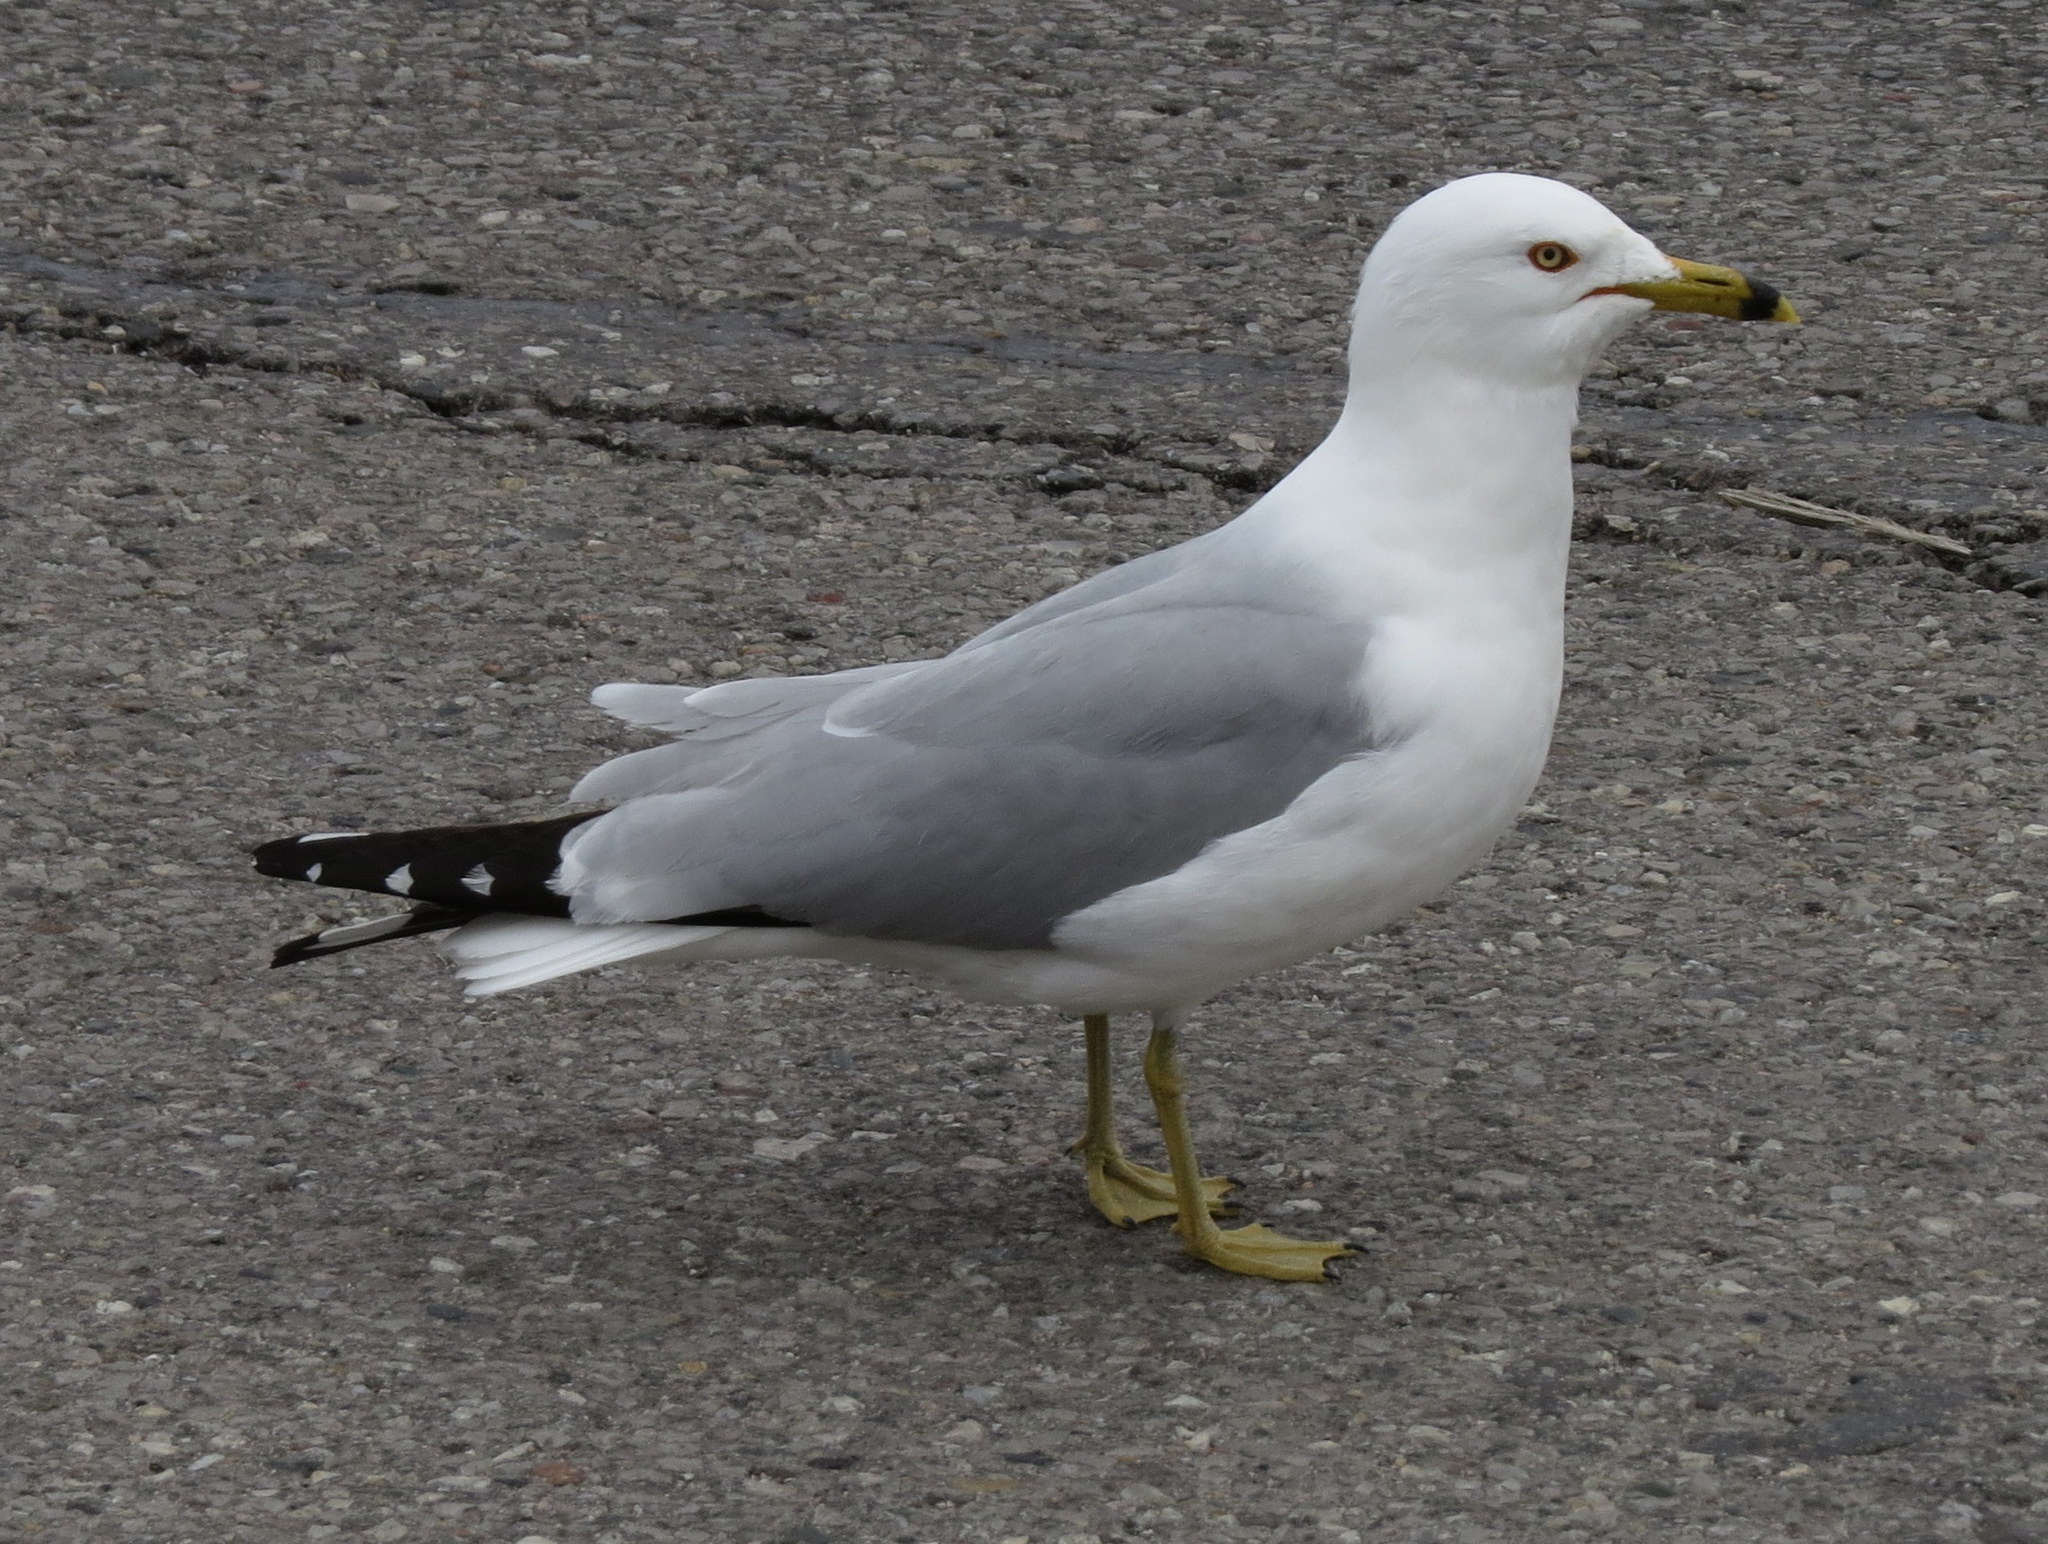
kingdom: Animalia
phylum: Chordata
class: Aves
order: Charadriiformes
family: Laridae
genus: Larus
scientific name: Larus delawarensis
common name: Ring-billed gull
